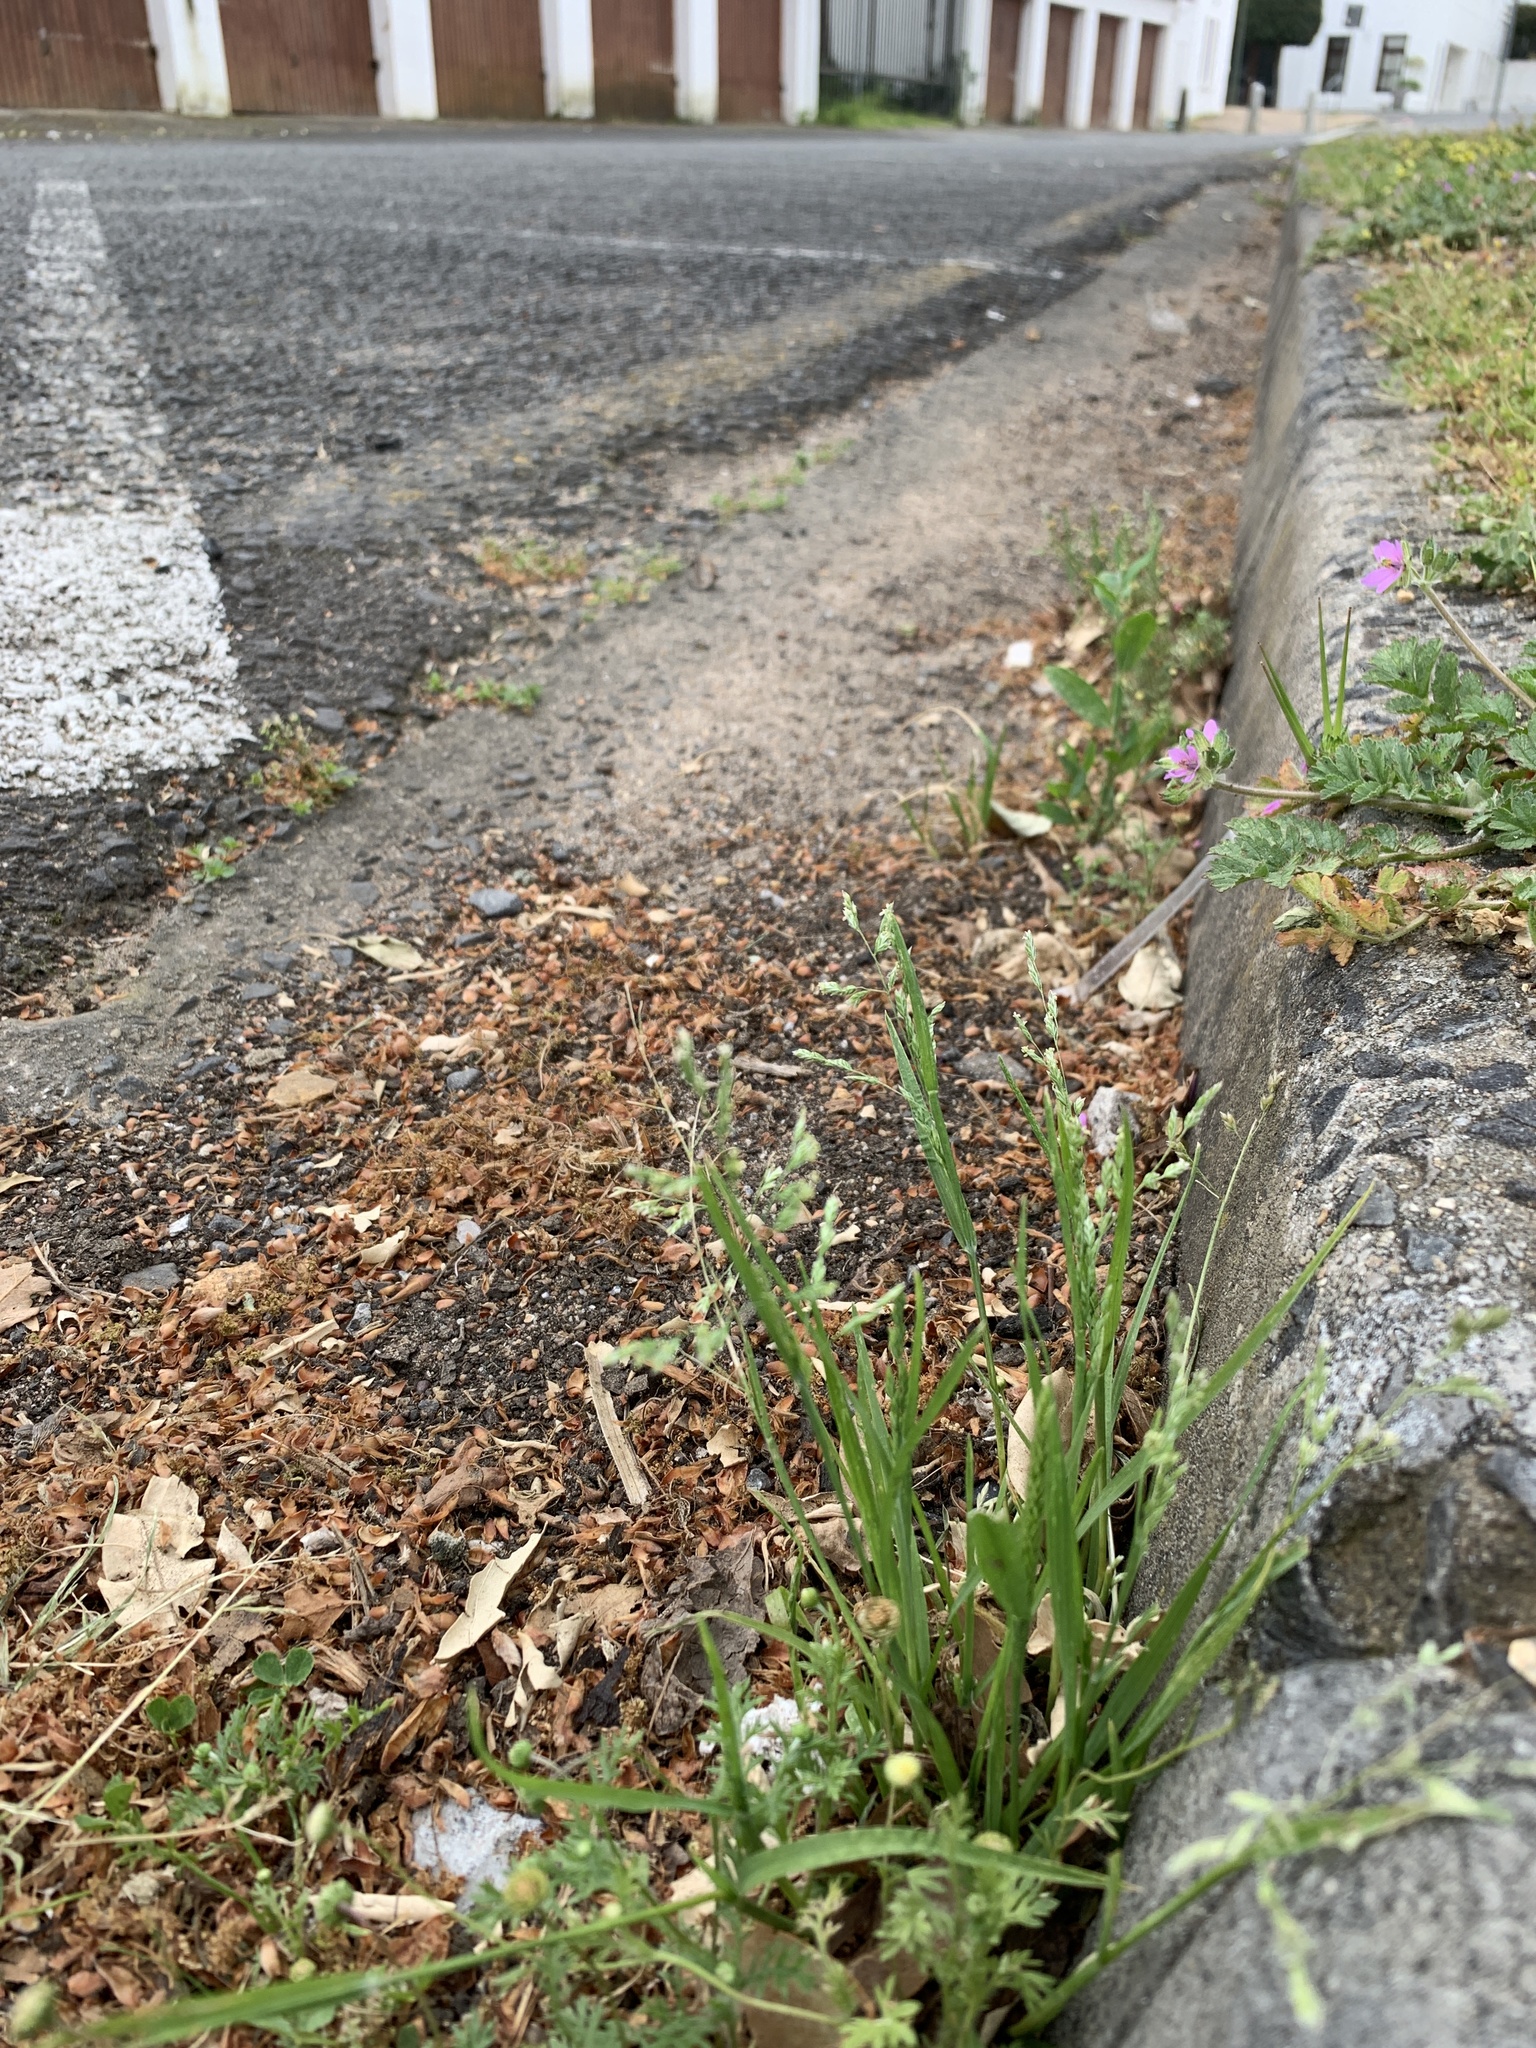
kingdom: Plantae
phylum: Tracheophyta
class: Liliopsida
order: Poales
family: Poaceae
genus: Poa
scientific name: Poa annua
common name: Annual bluegrass
